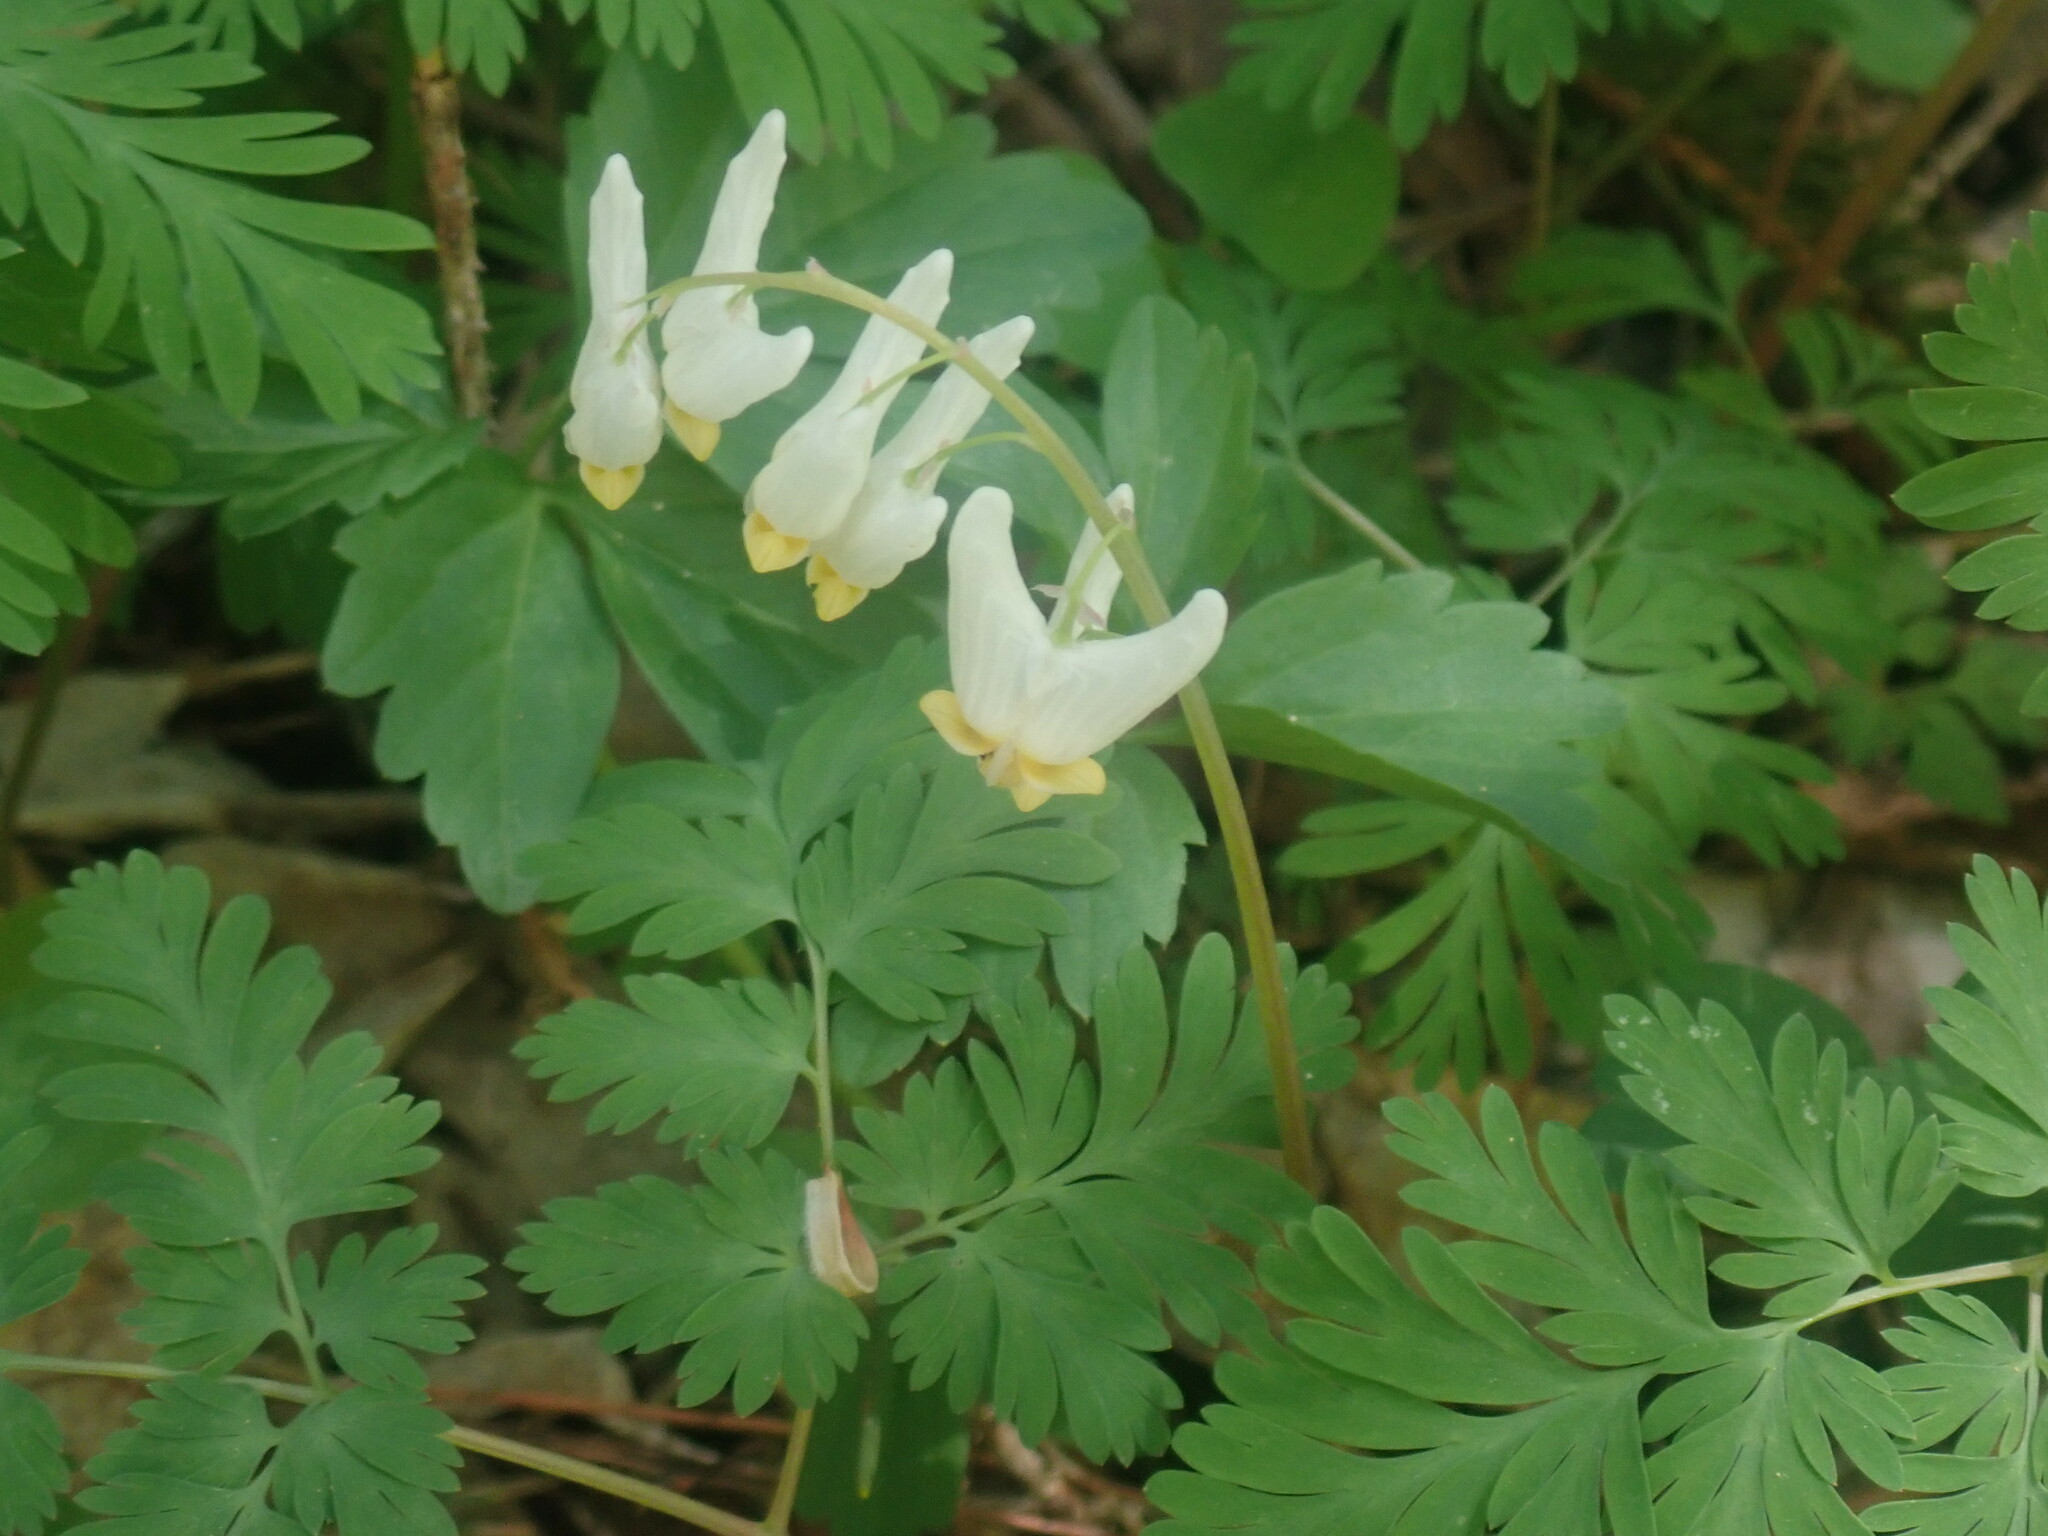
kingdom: Plantae
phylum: Tracheophyta
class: Magnoliopsida
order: Ranunculales
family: Papaveraceae
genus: Dicentra
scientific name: Dicentra cucullaria
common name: Dutchman's breeches
